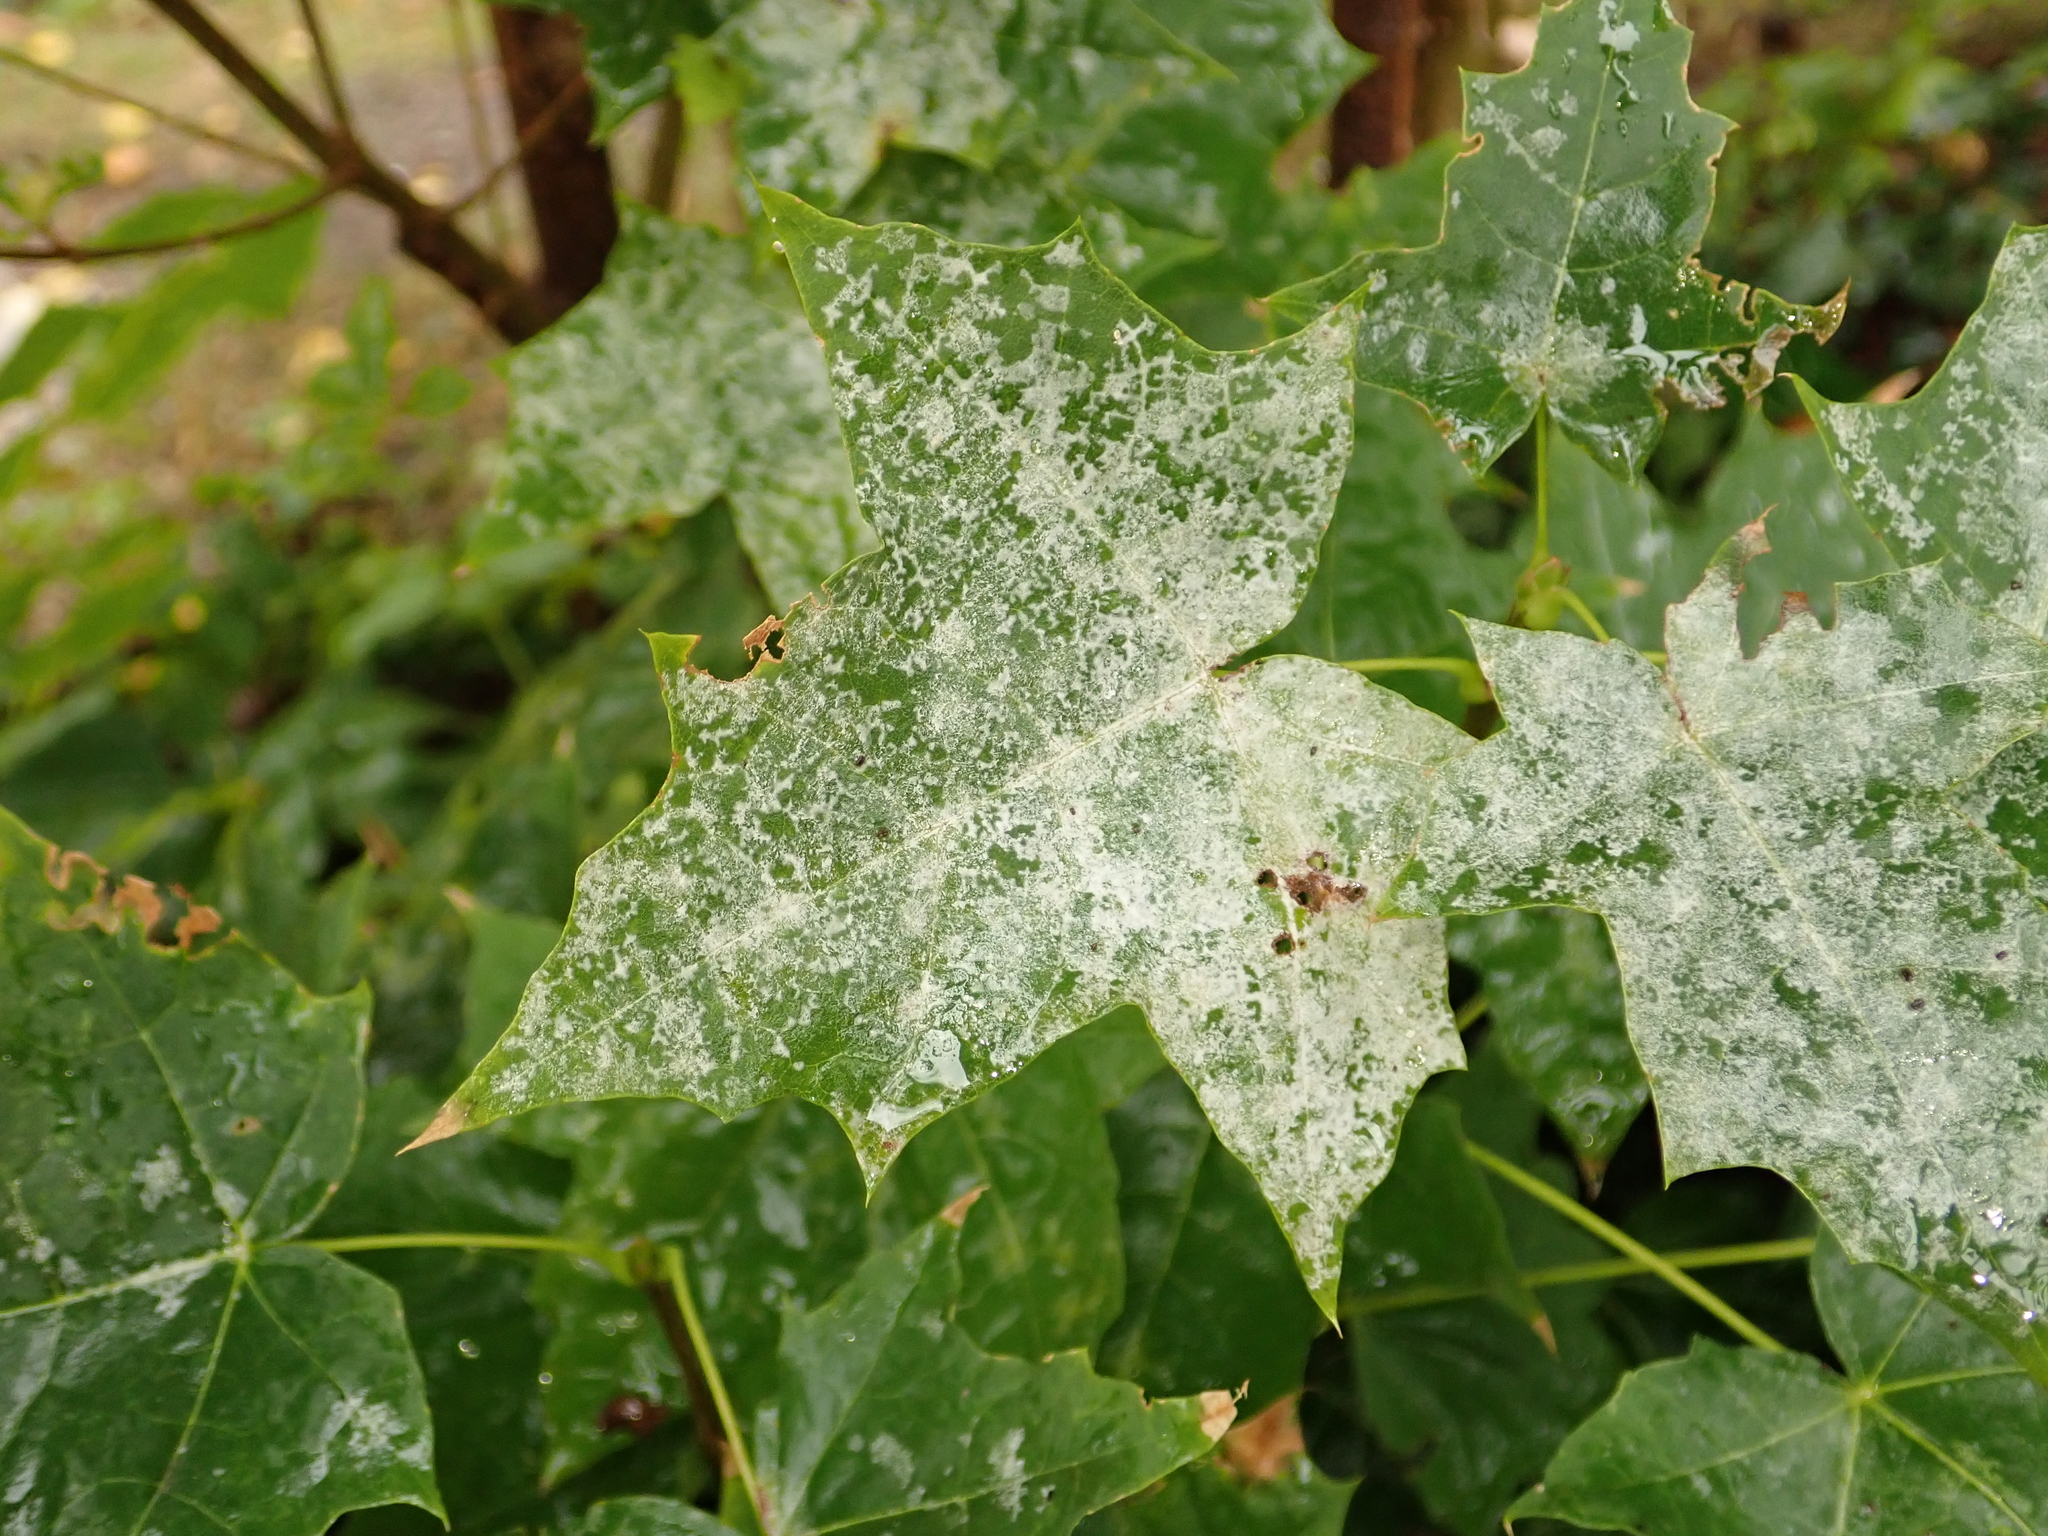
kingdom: Plantae
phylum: Tracheophyta
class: Magnoliopsida
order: Sapindales
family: Sapindaceae
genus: Acer
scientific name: Acer platanoides
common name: Norway maple
